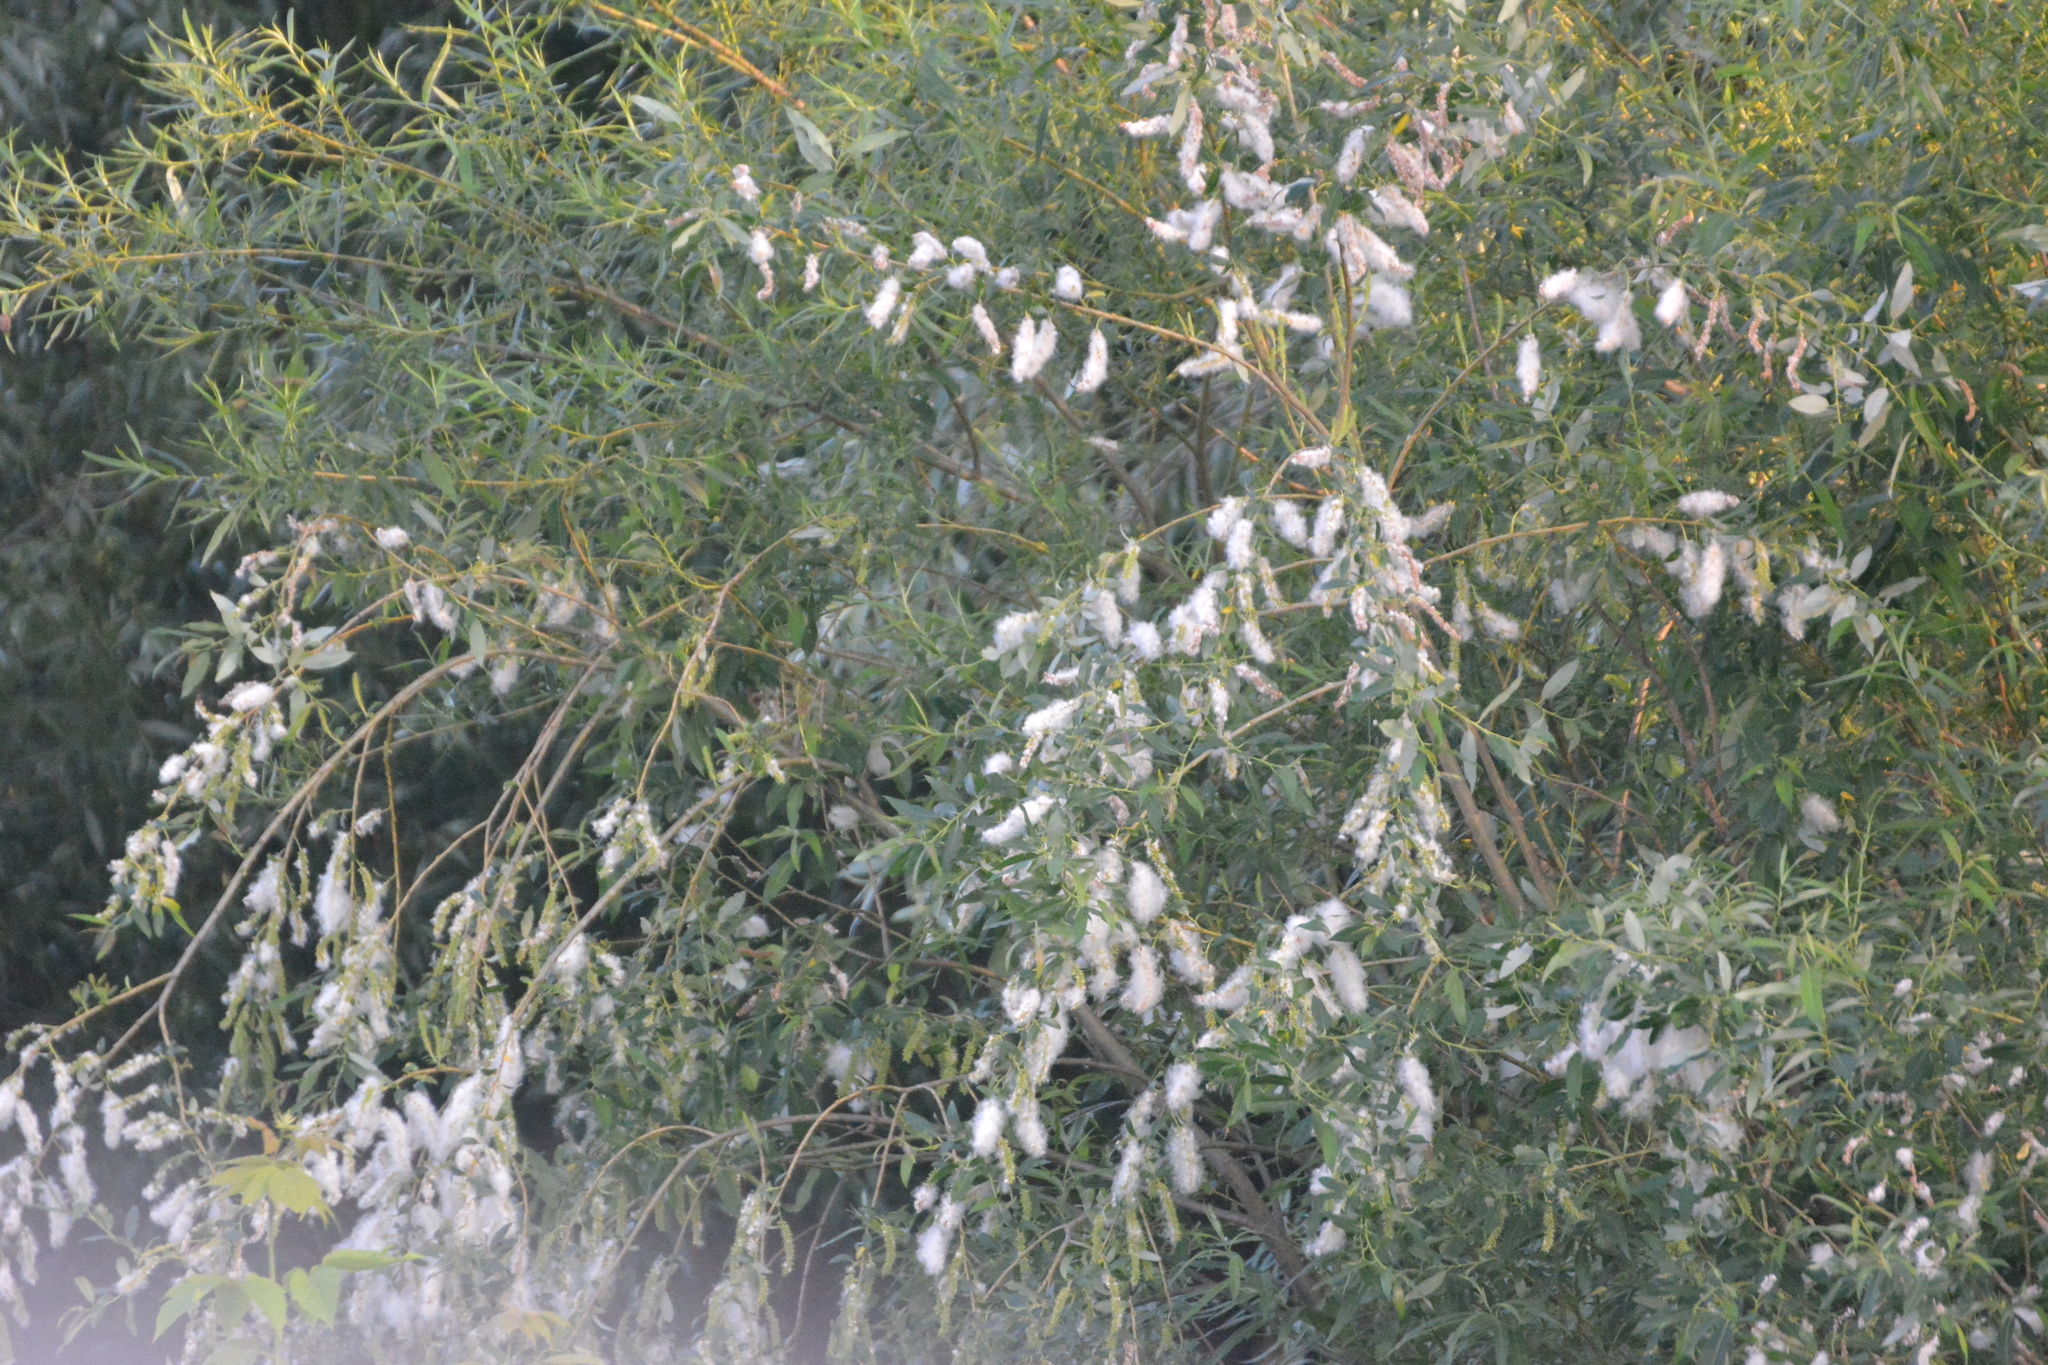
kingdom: Plantae
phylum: Tracheophyta
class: Magnoliopsida
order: Malpighiales
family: Salicaceae
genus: Salix
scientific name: Salix triandra
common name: Almond willow
